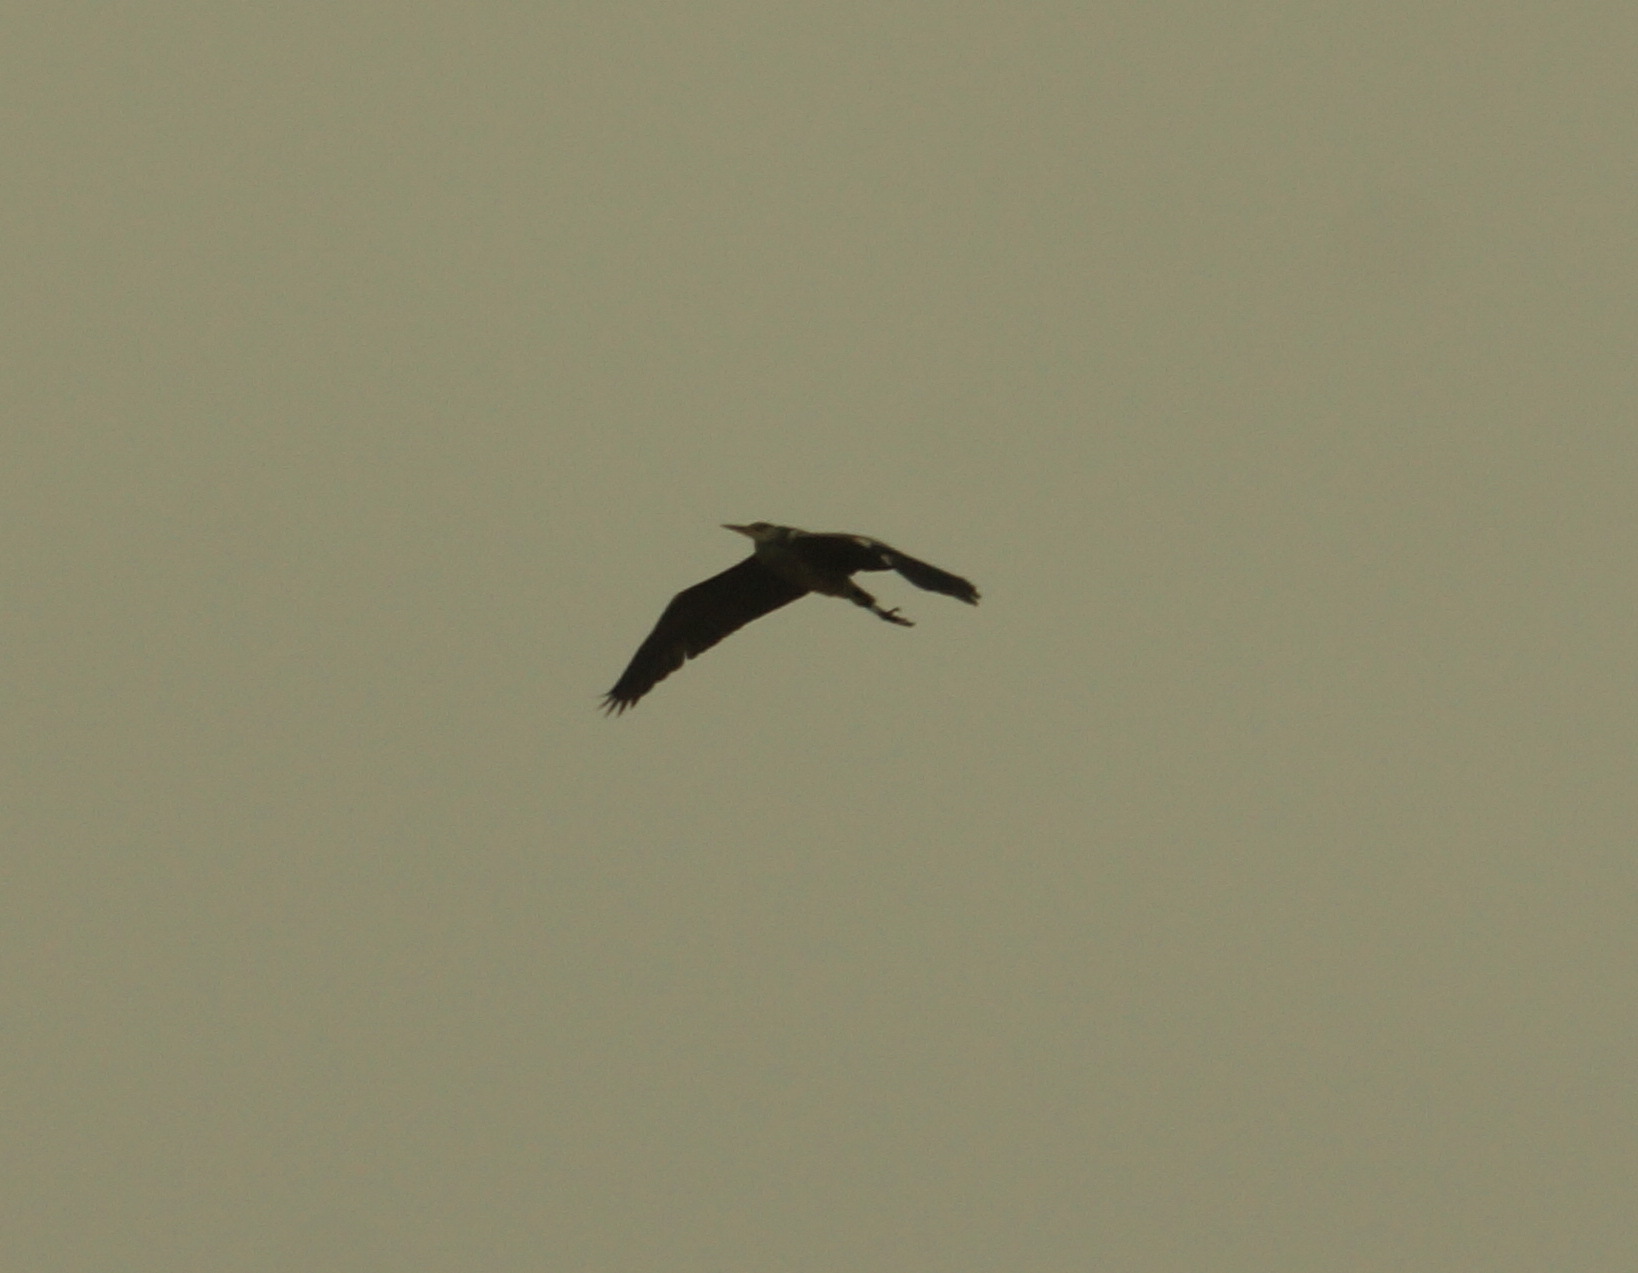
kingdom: Animalia
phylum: Chordata
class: Aves
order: Pelecaniformes
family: Ardeidae
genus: Ardea
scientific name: Ardea cinerea
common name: Grey heron
